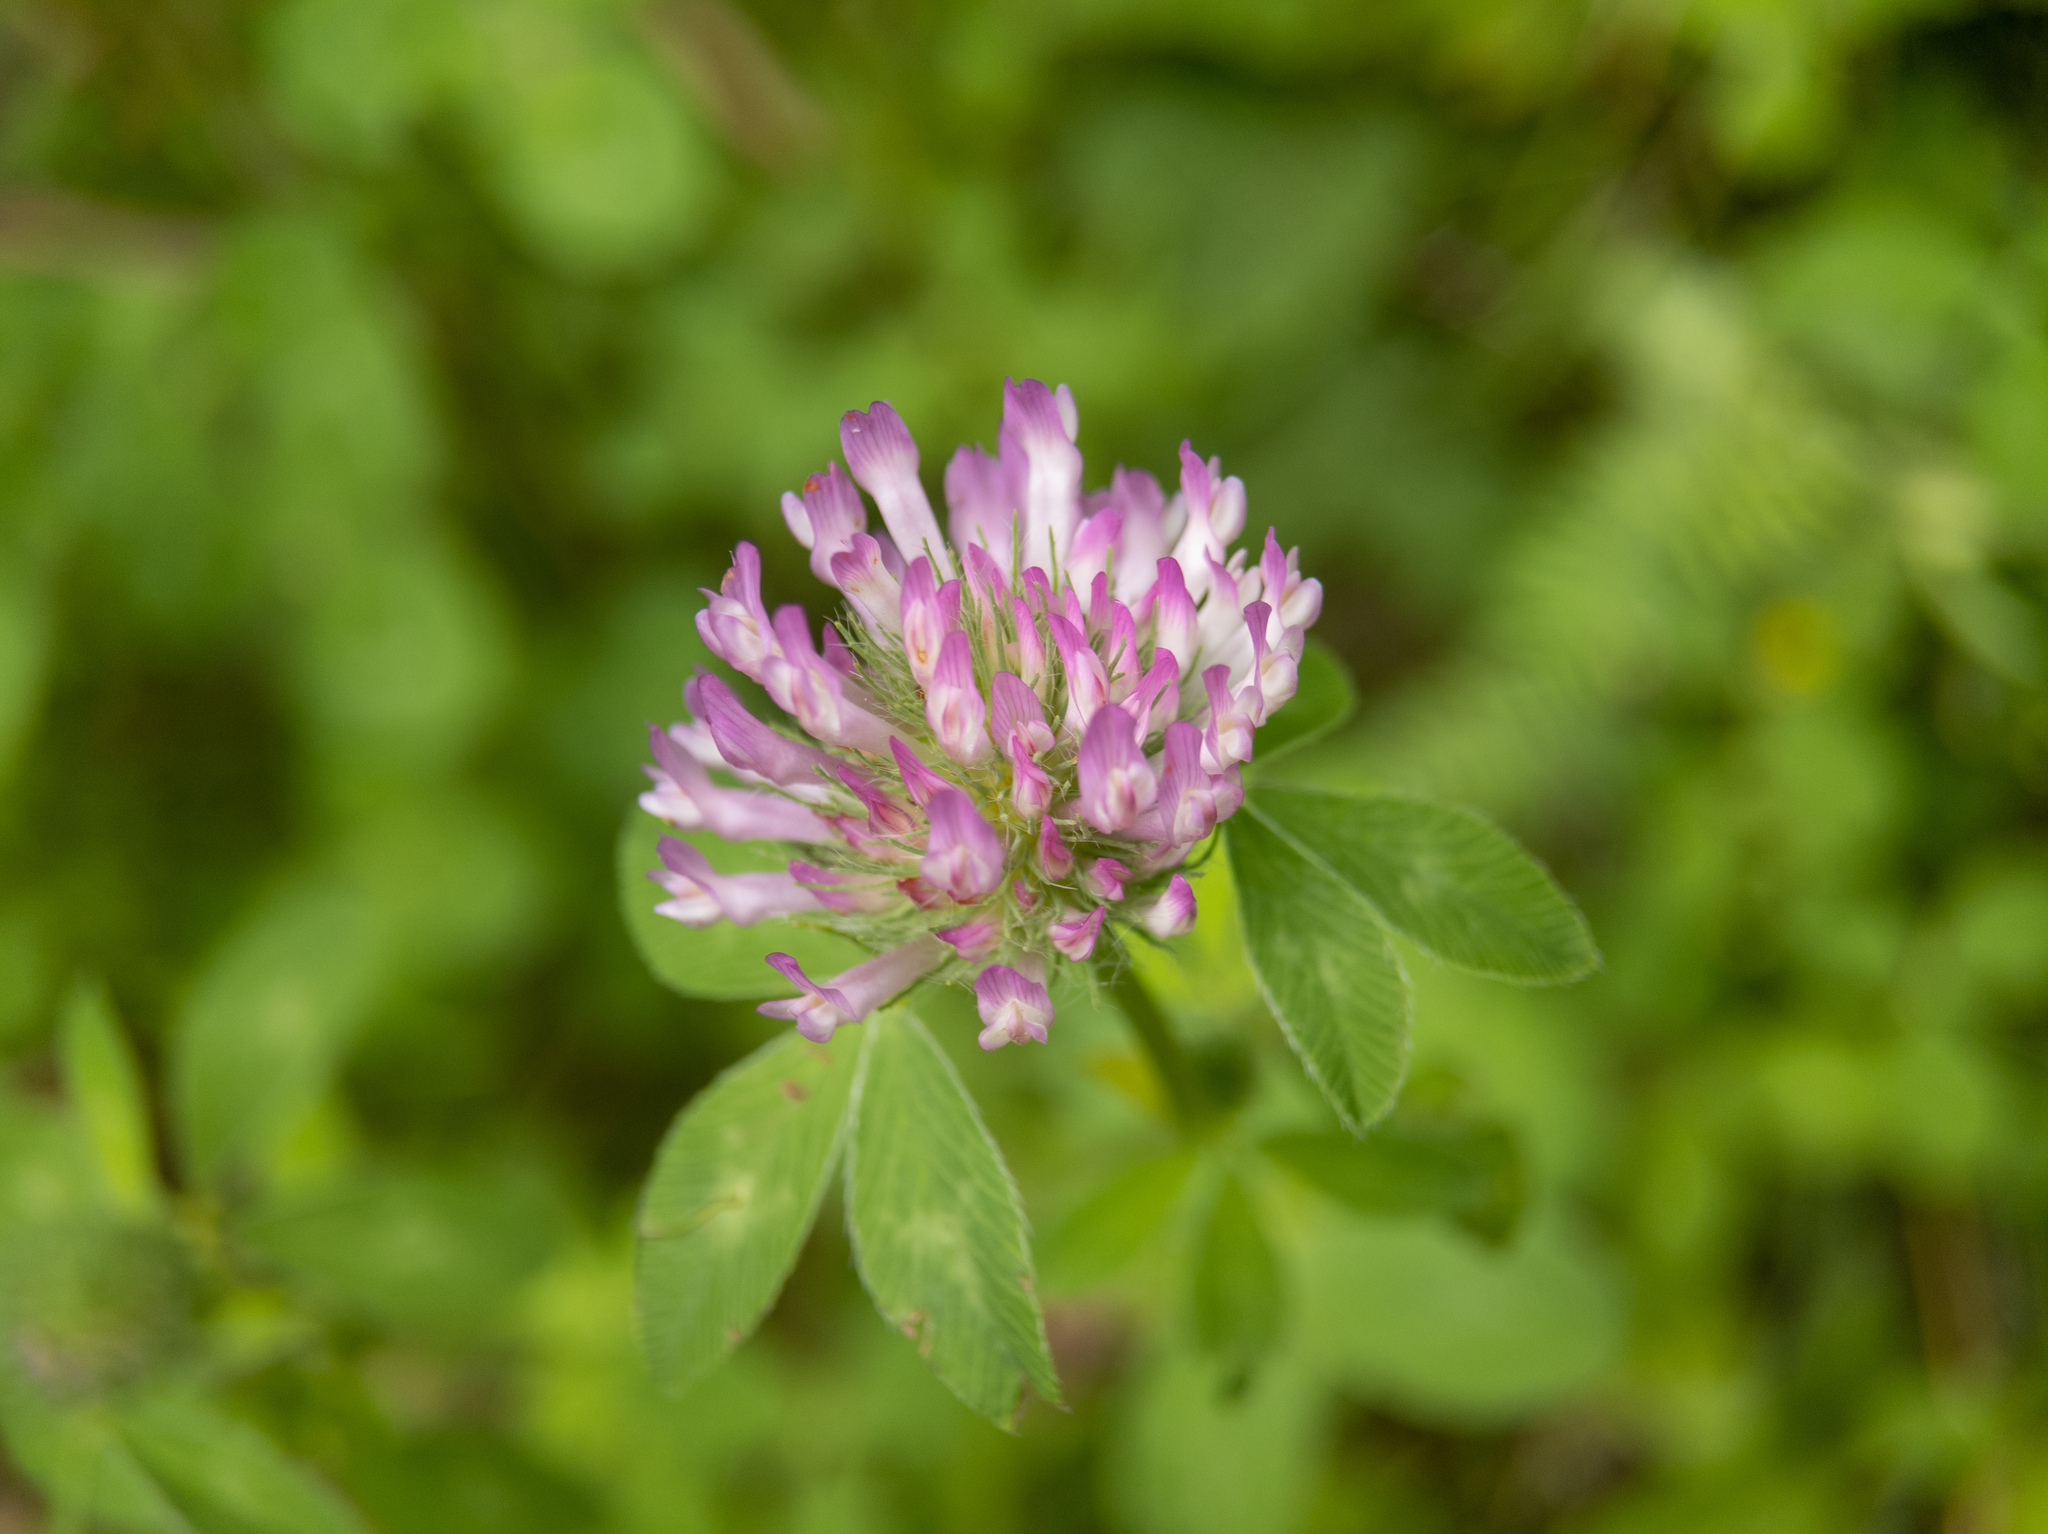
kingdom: Plantae
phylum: Tracheophyta
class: Magnoliopsida
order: Fabales
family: Fabaceae
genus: Trifolium
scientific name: Trifolium pratense
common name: Red clover
